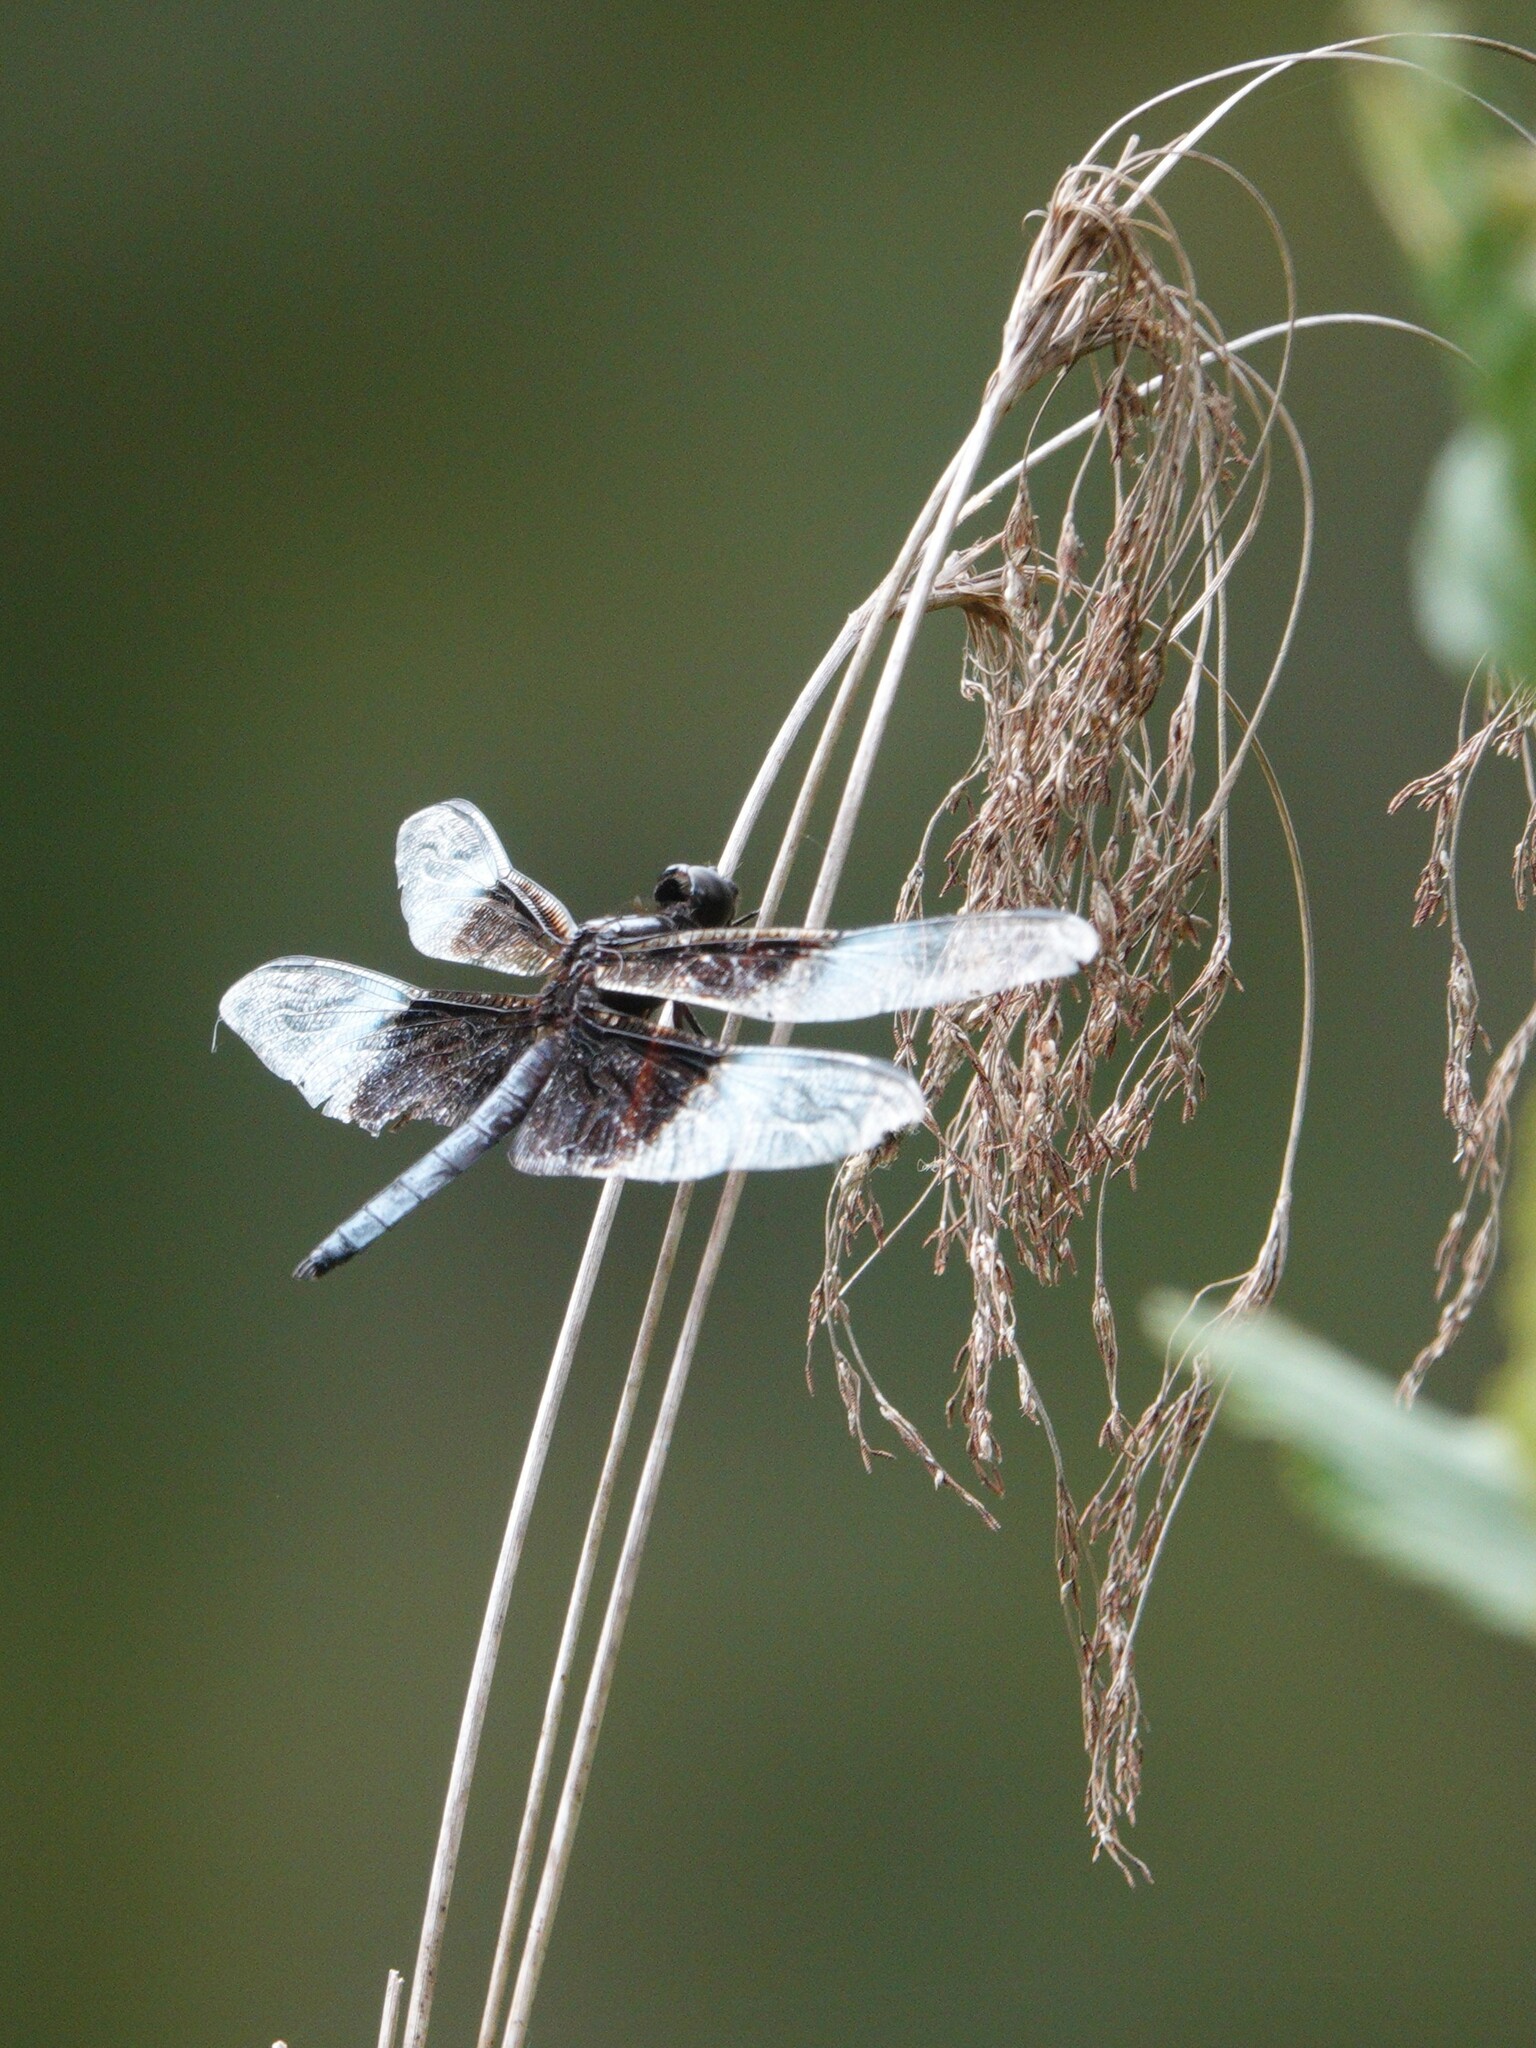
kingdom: Animalia
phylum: Arthropoda
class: Insecta
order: Odonata
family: Libellulidae
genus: Libellula
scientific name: Libellula luctuosa
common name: Widow skimmer
